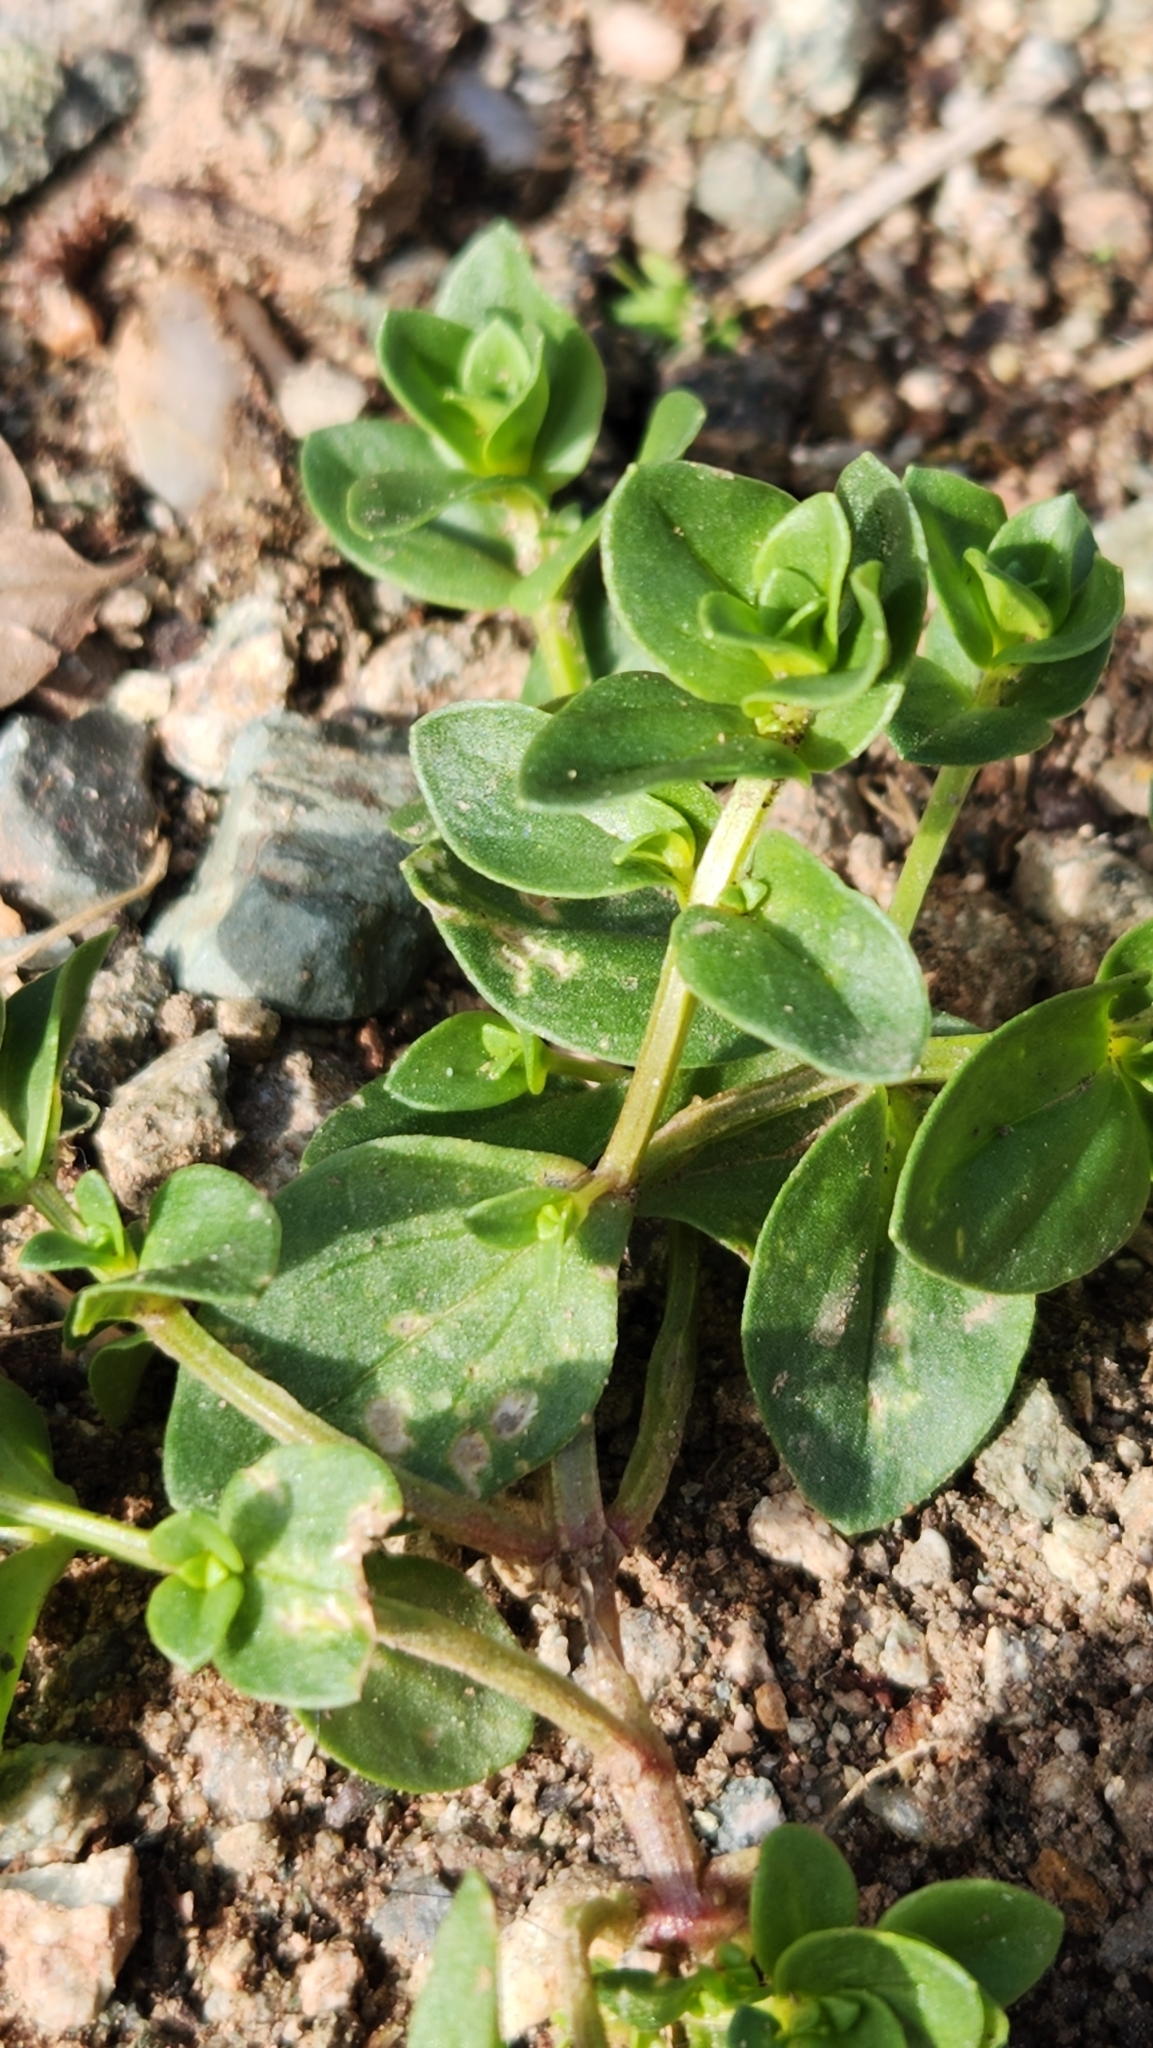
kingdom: Plantae
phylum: Tracheophyta
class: Magnoliopsida
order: Ericales
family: Primulaceae
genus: Lysimachia
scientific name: Lysimachia arvensis
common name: Scarlet pimpernel
